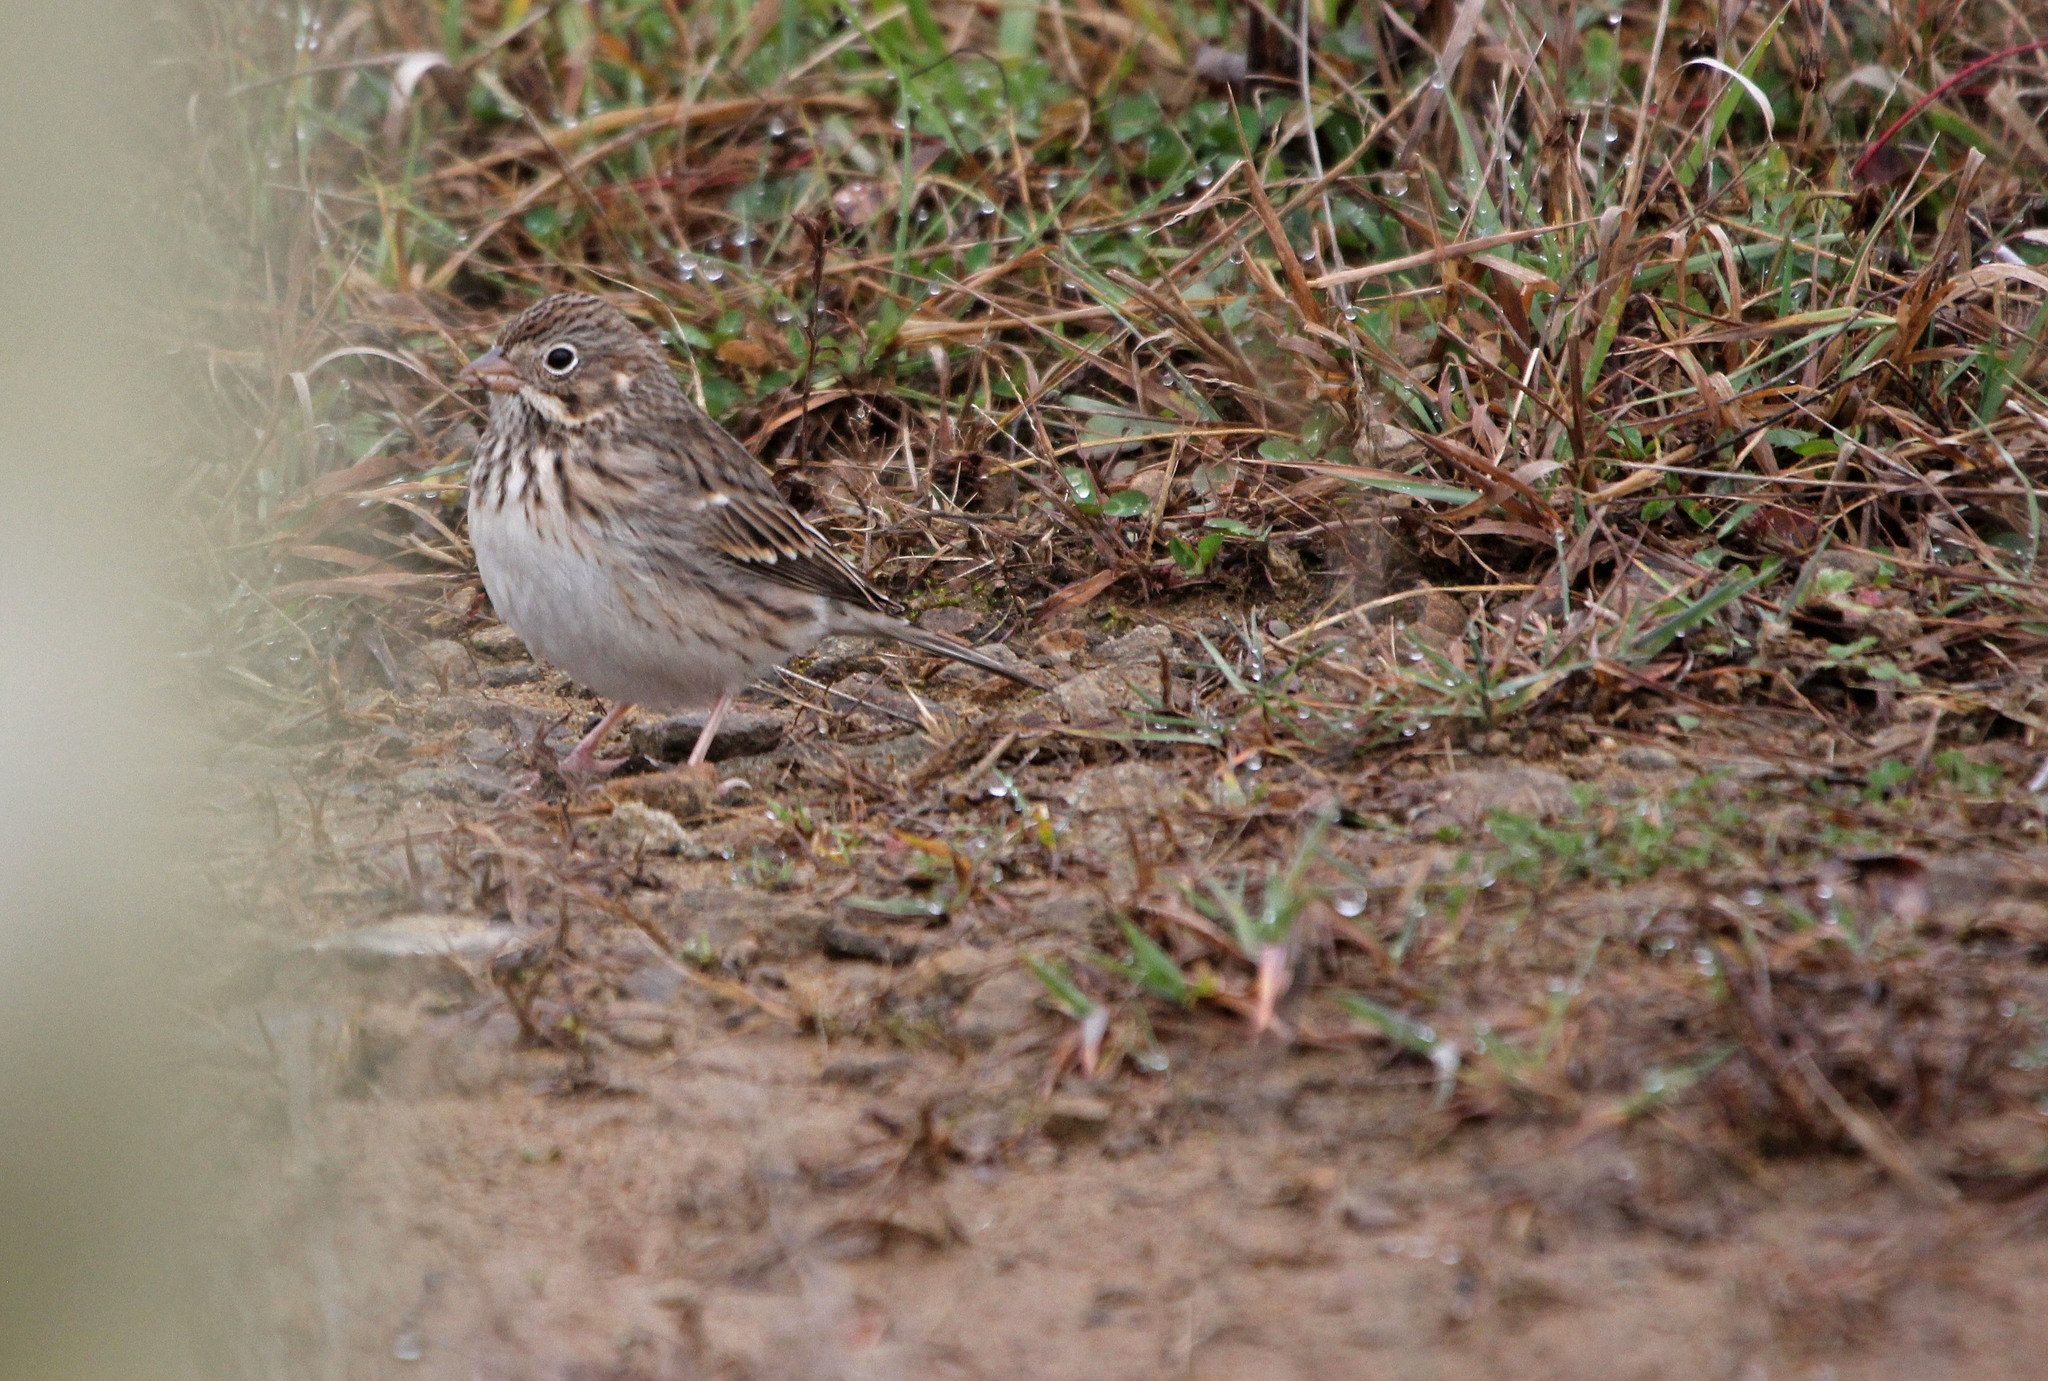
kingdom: Animalia
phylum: Chordata
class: Aves
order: Passeriformes
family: Passerellidae
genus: Pooecetes
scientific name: Pooecetes gramineus
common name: Vesper sparrow
